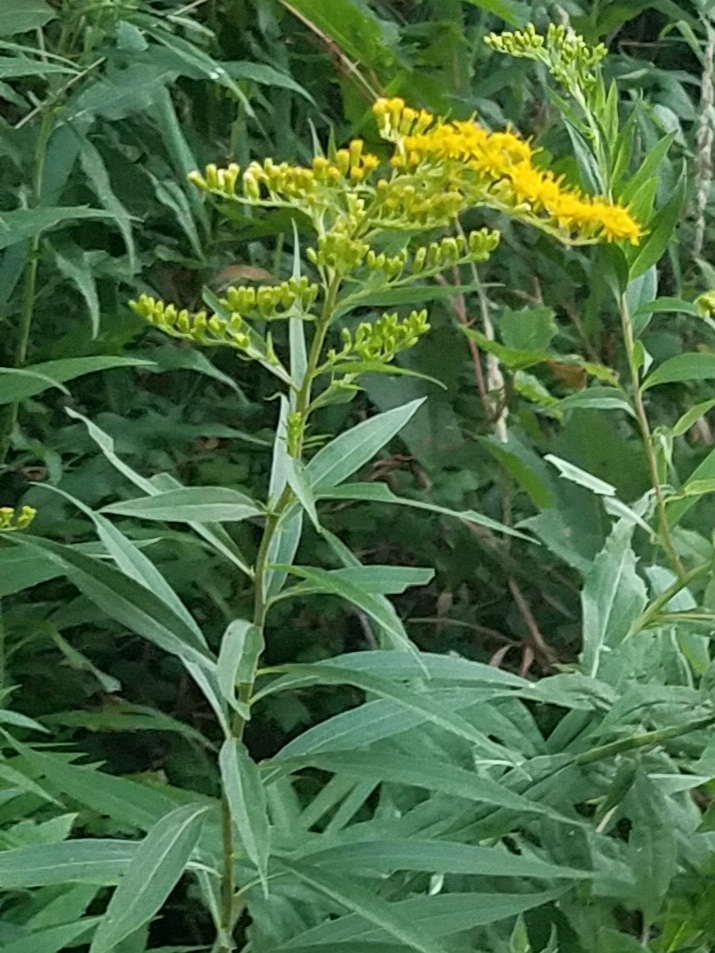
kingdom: Plantae
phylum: Tracheophyta
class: Magnoliopsida
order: Asterales
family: Asteraceae
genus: Solidago
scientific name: Solidago gigantea
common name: Giant goldenrod
